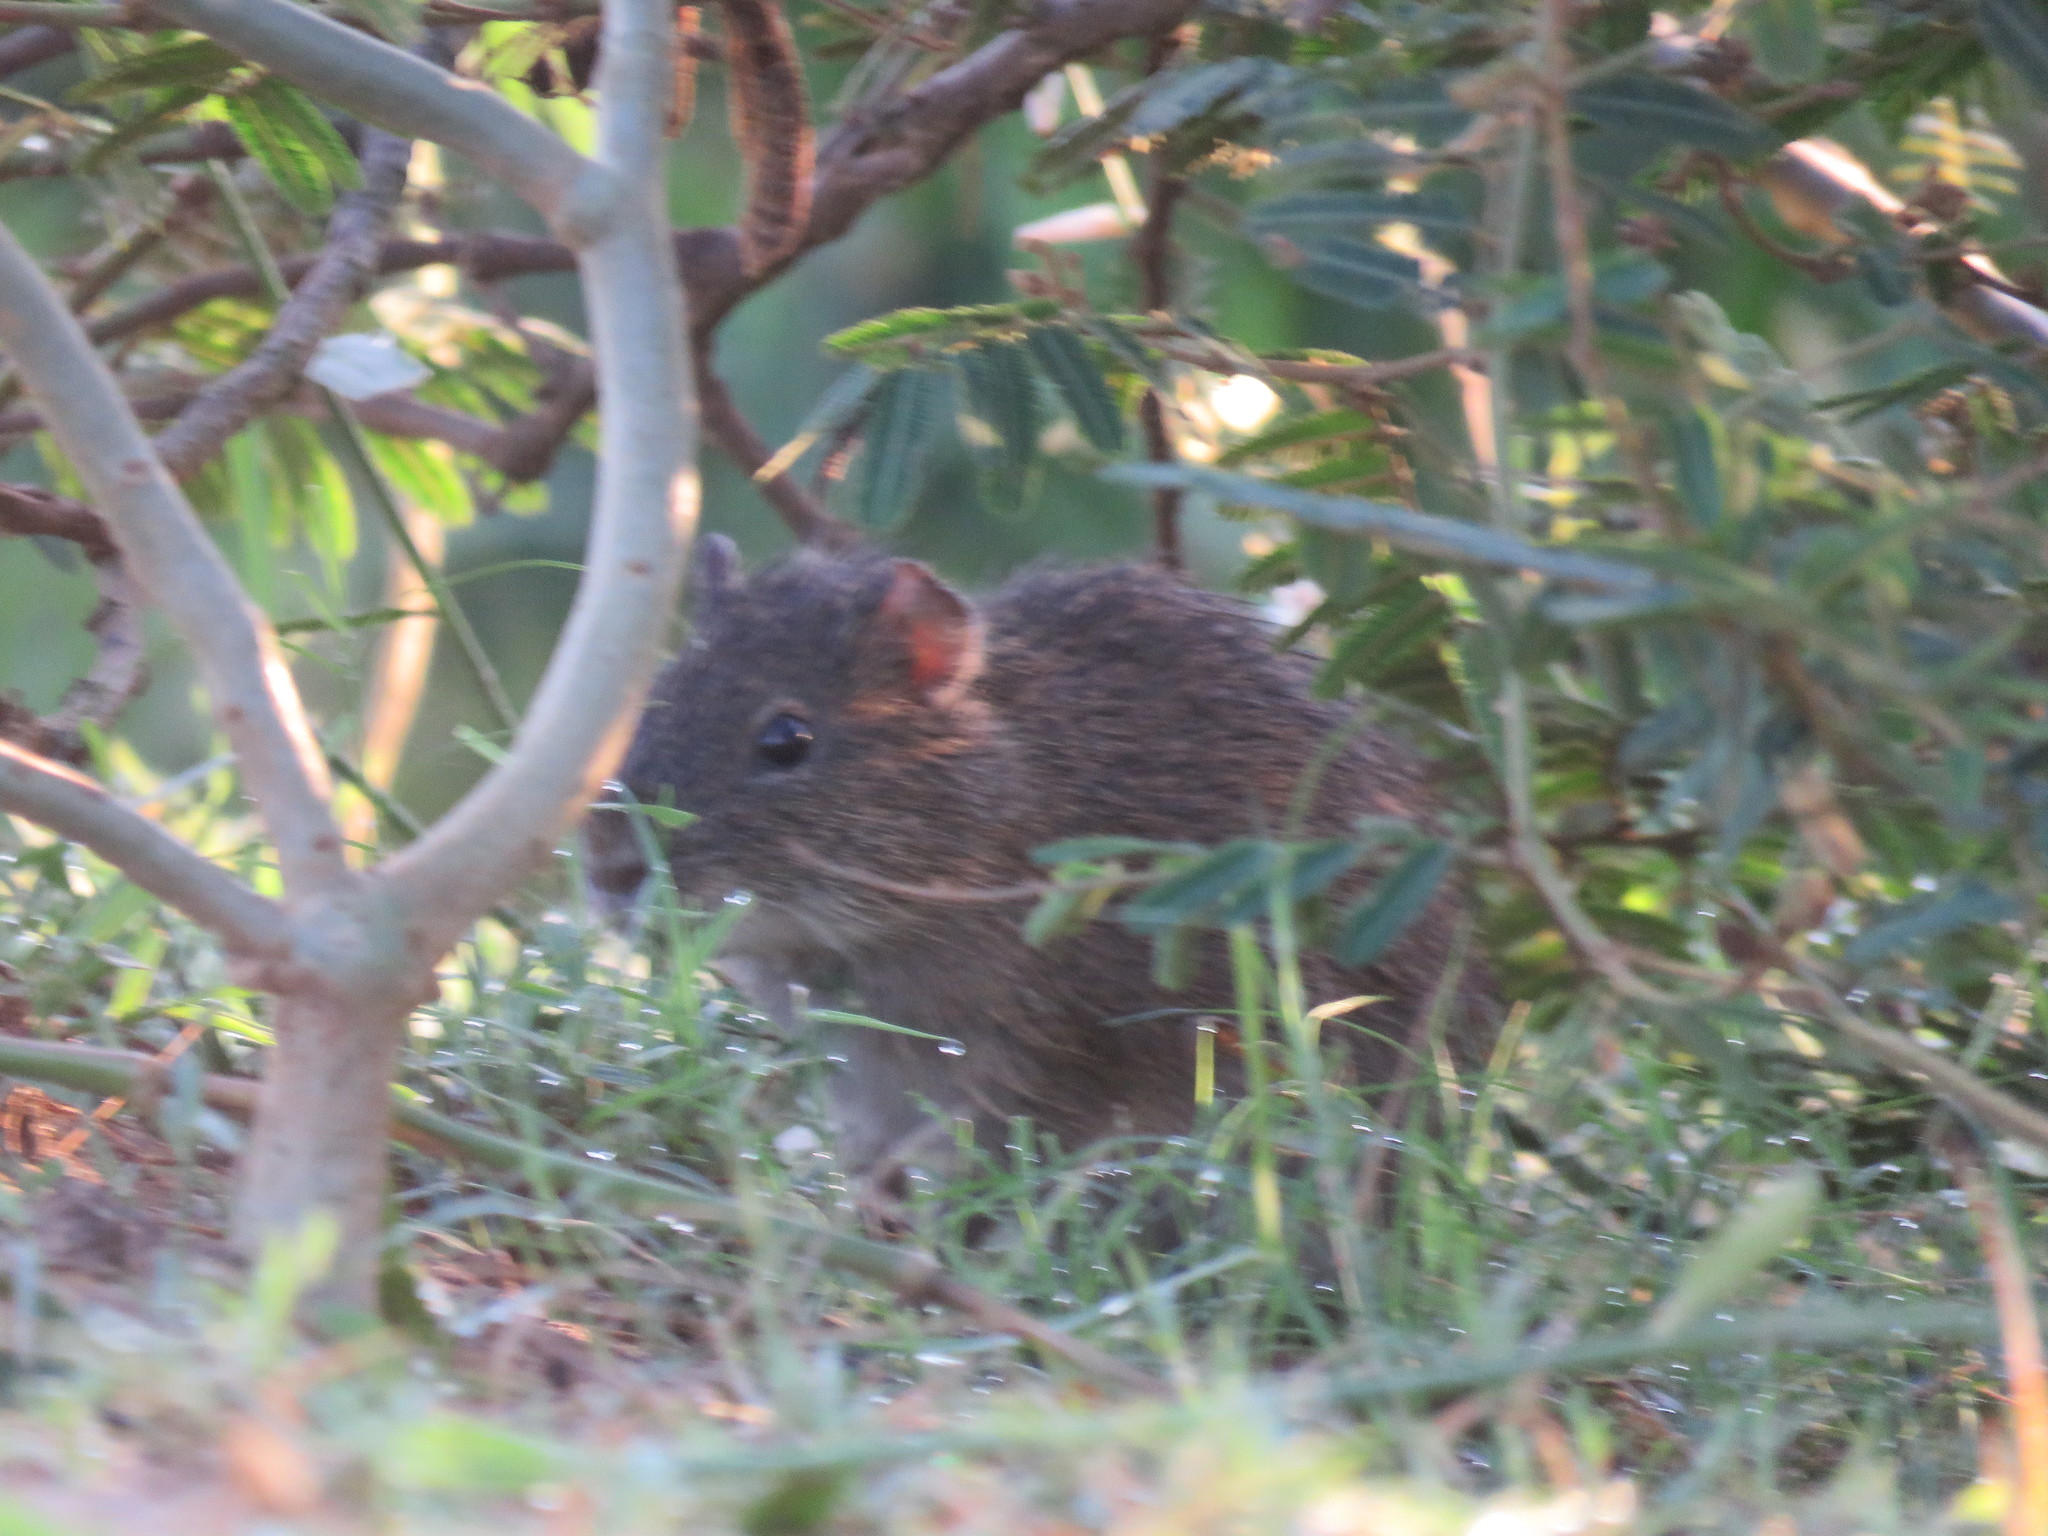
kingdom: Animalia
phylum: Chordata
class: Mammalia
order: Rodentia
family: Caviidae
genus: Cavia
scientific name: Cavia aperea
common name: Brazilian guinea pig
